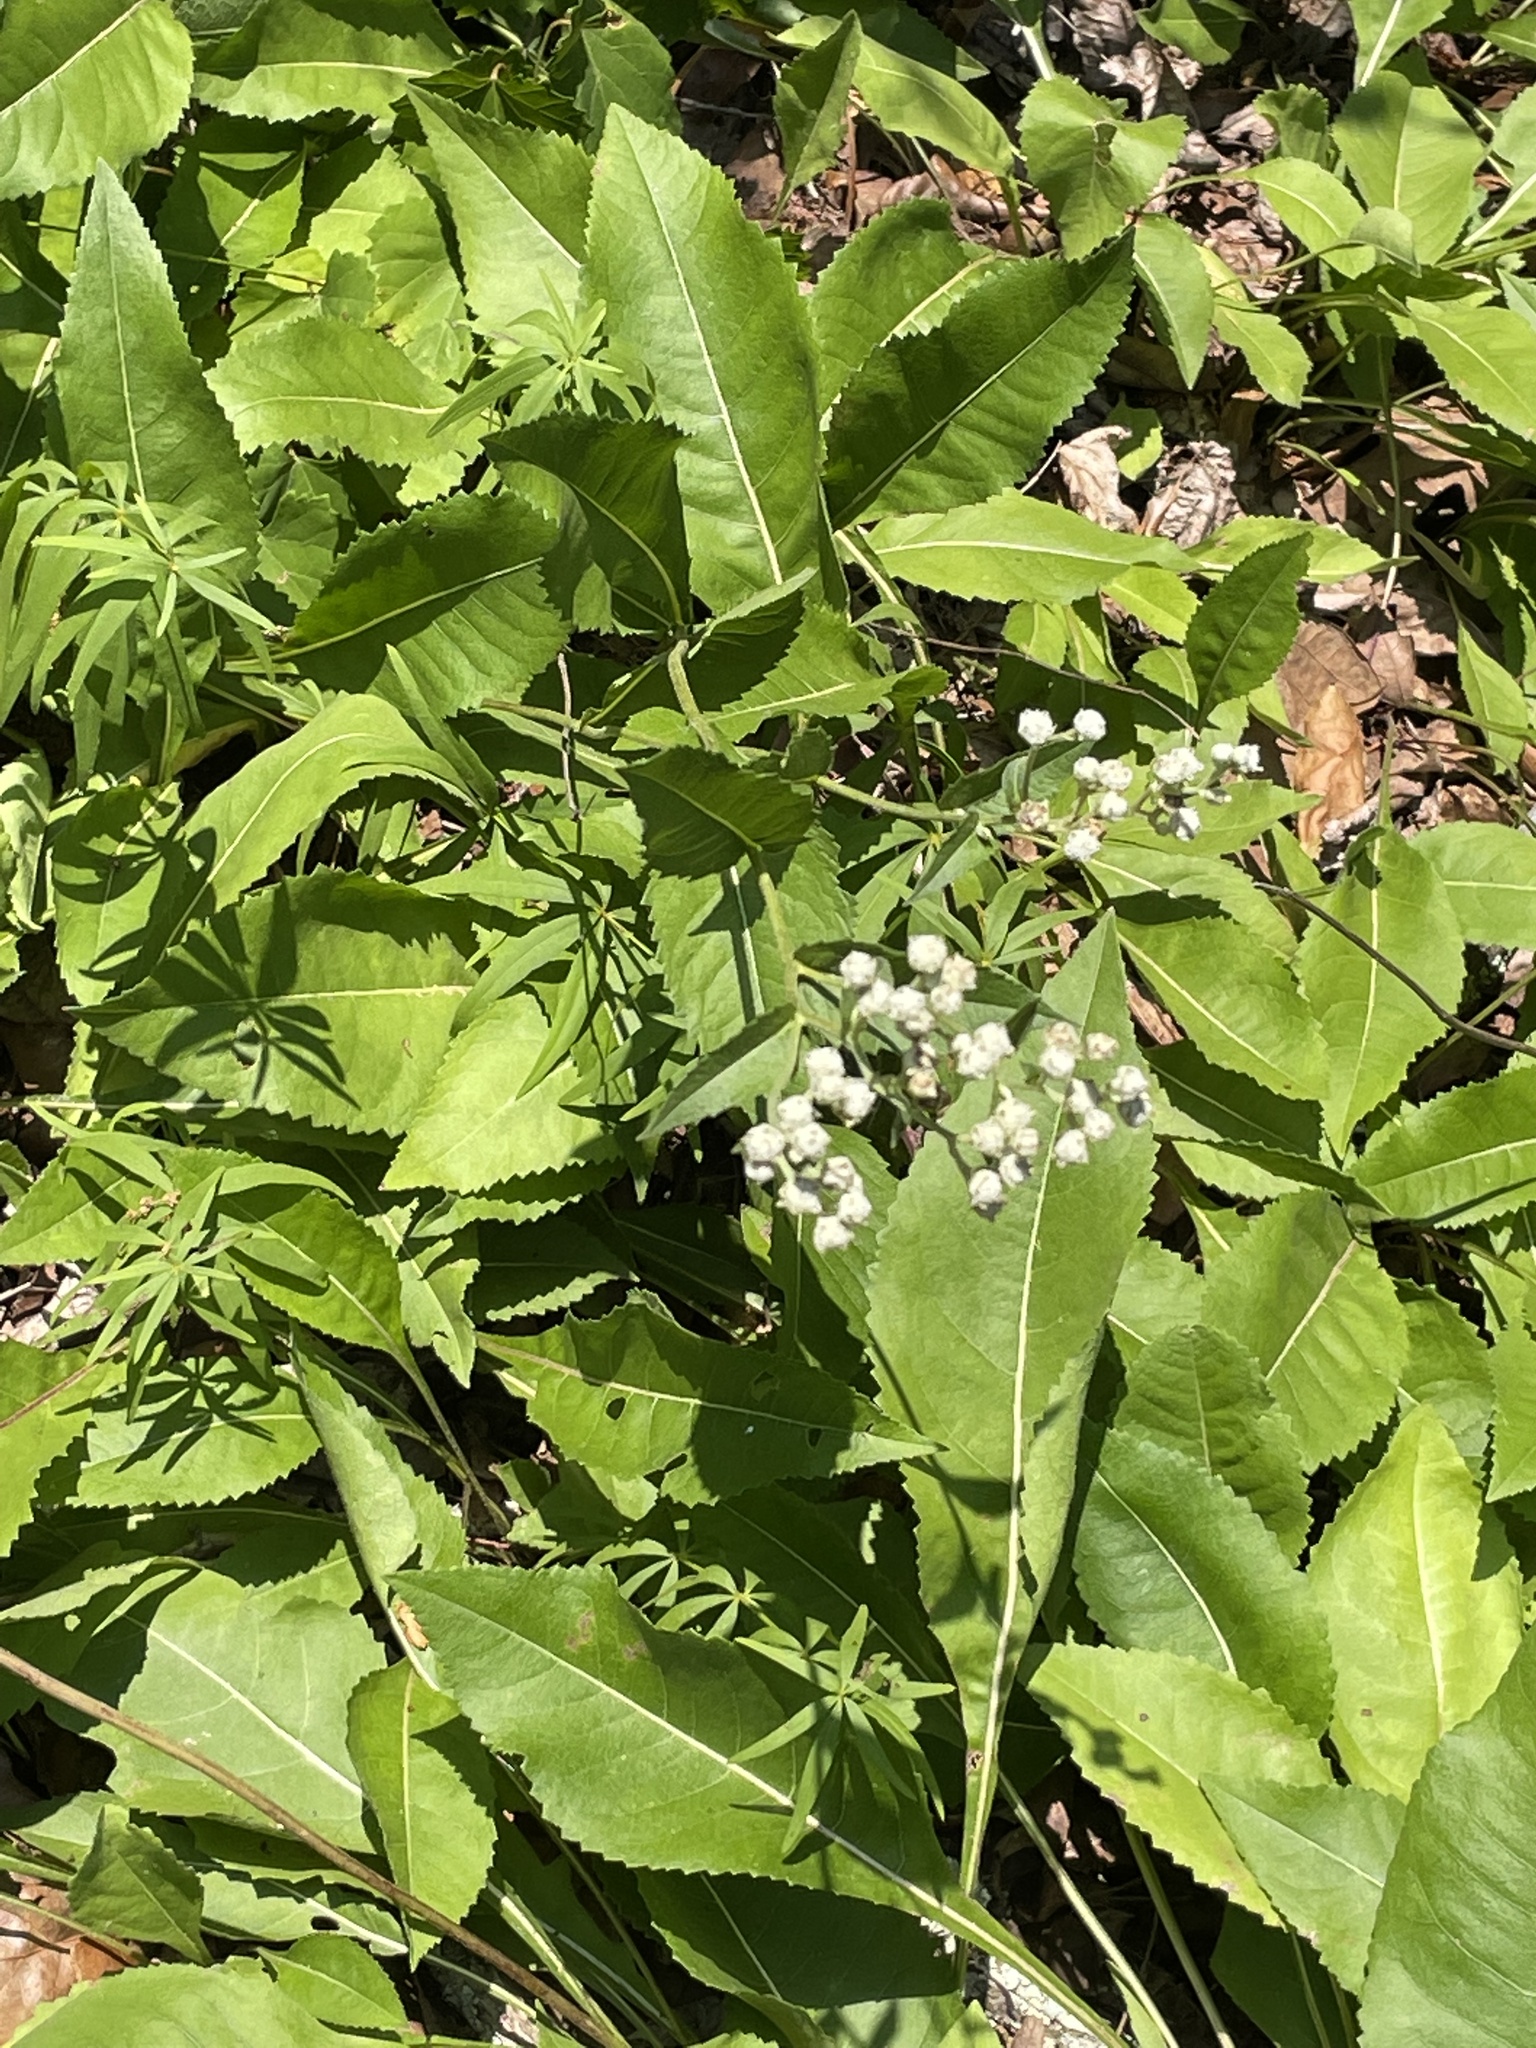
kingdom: Plantae
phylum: Tracheophyta
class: Magnoliopsida
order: Asterales
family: Asteraceae
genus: Parthenium
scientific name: Parthenium integrifolium
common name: American feverfew
